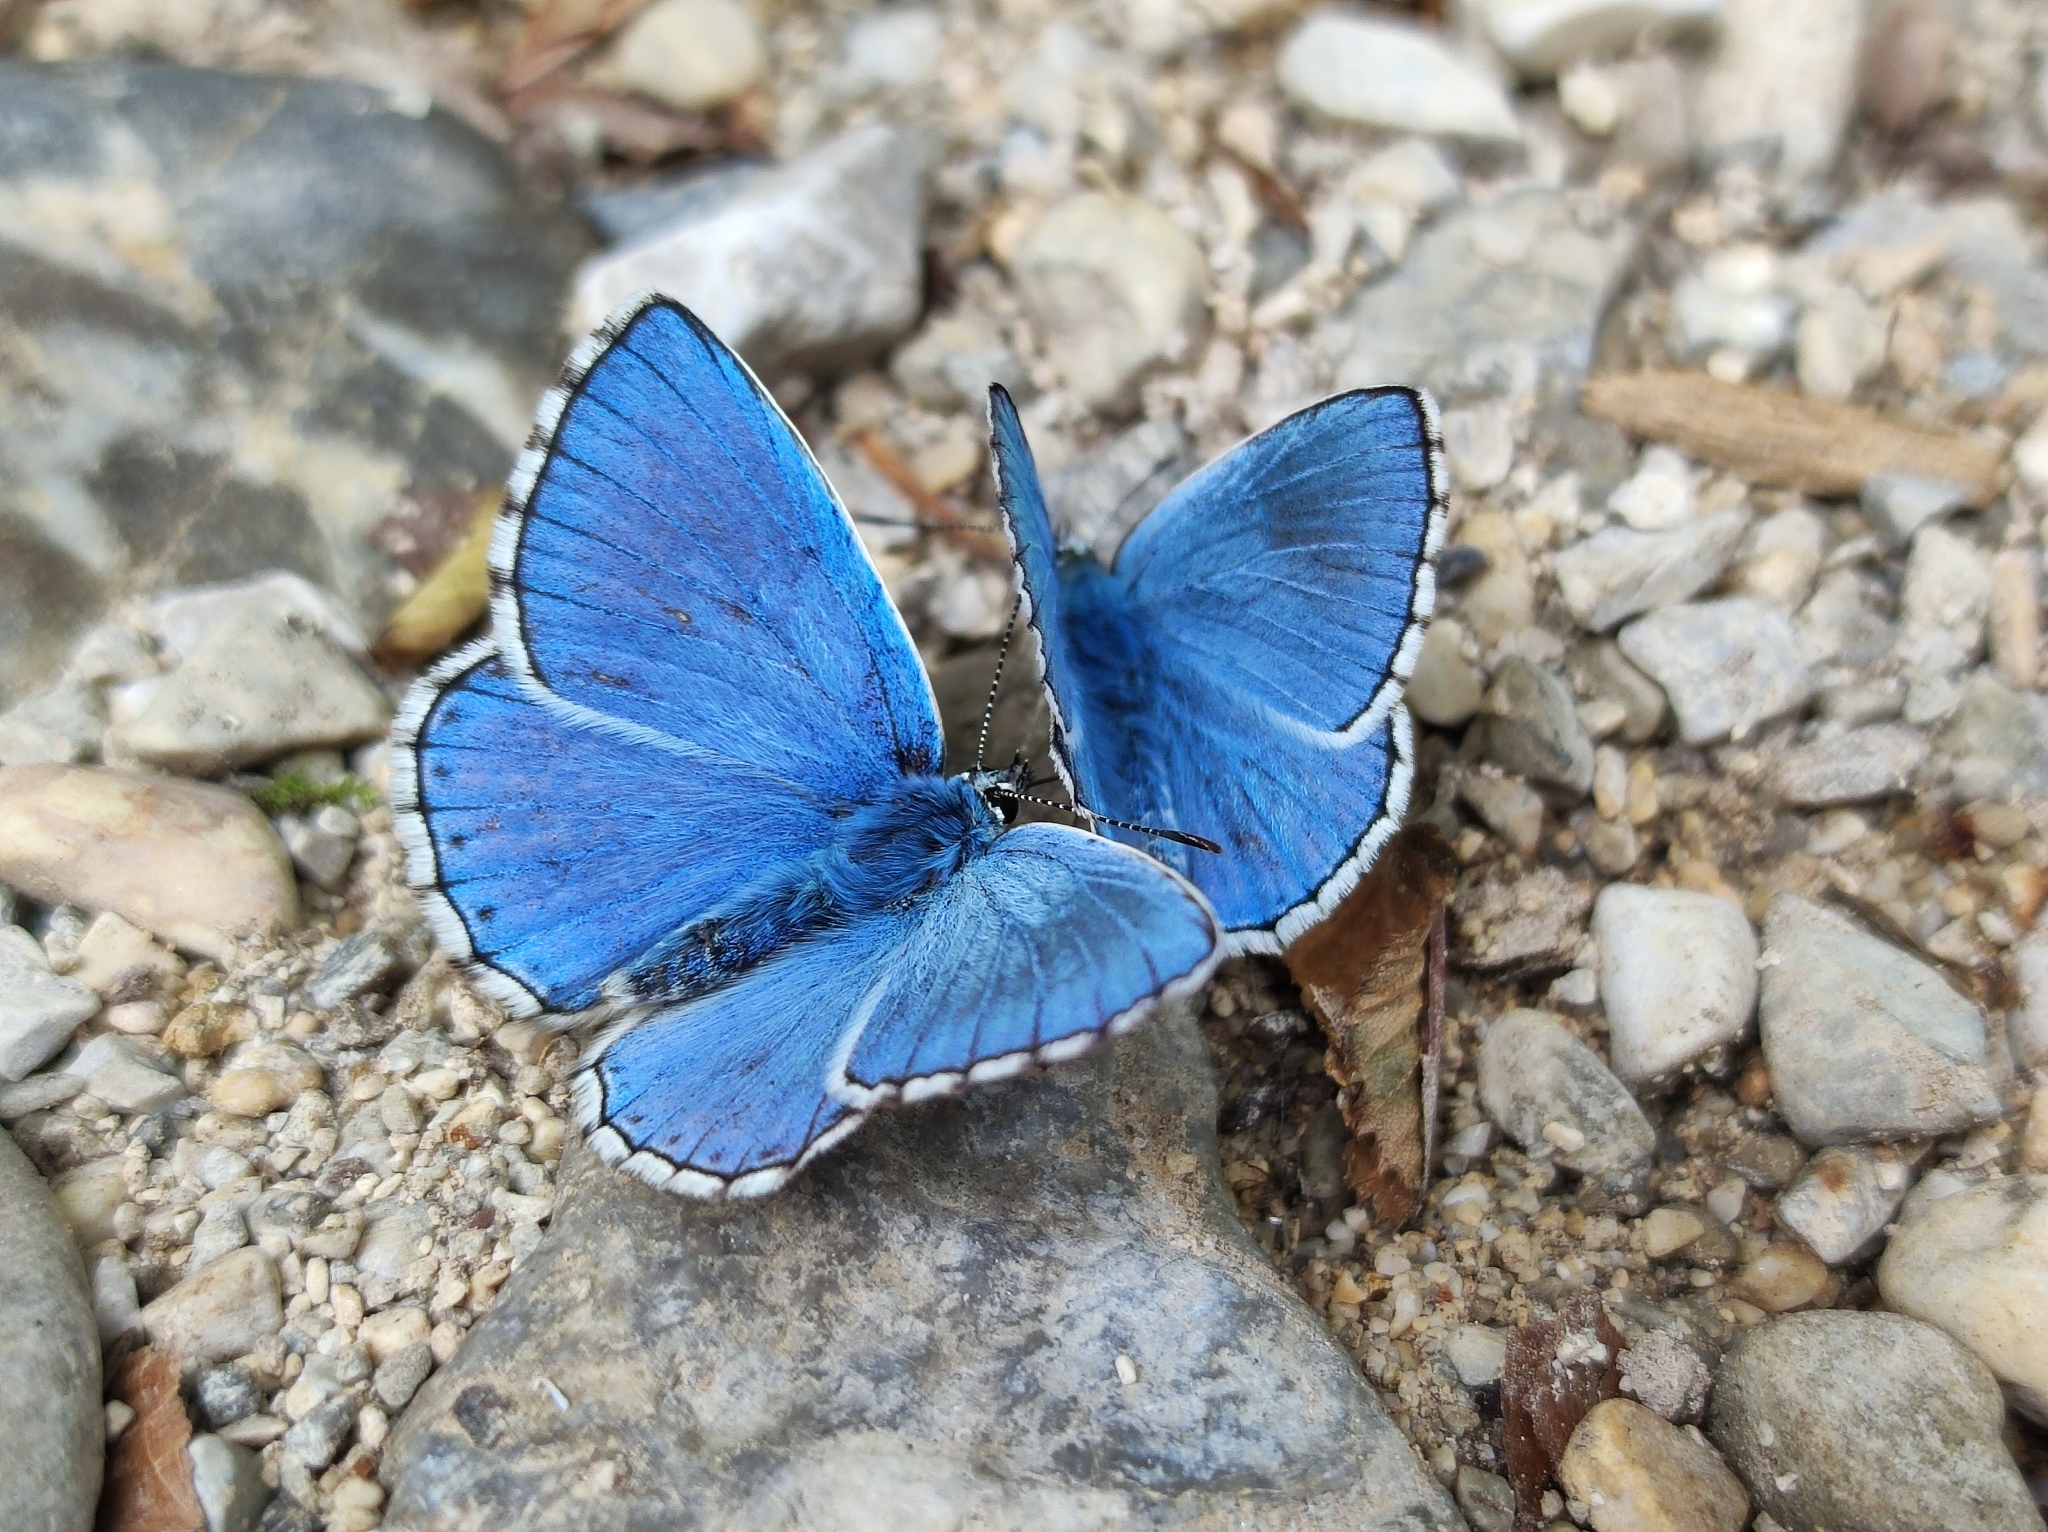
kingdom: Animalia
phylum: Arthropoda
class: Insecta
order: Lepidoptera
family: Lycaenidae
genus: Lysandra
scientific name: Lysandra bellargus
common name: Adonis blue
